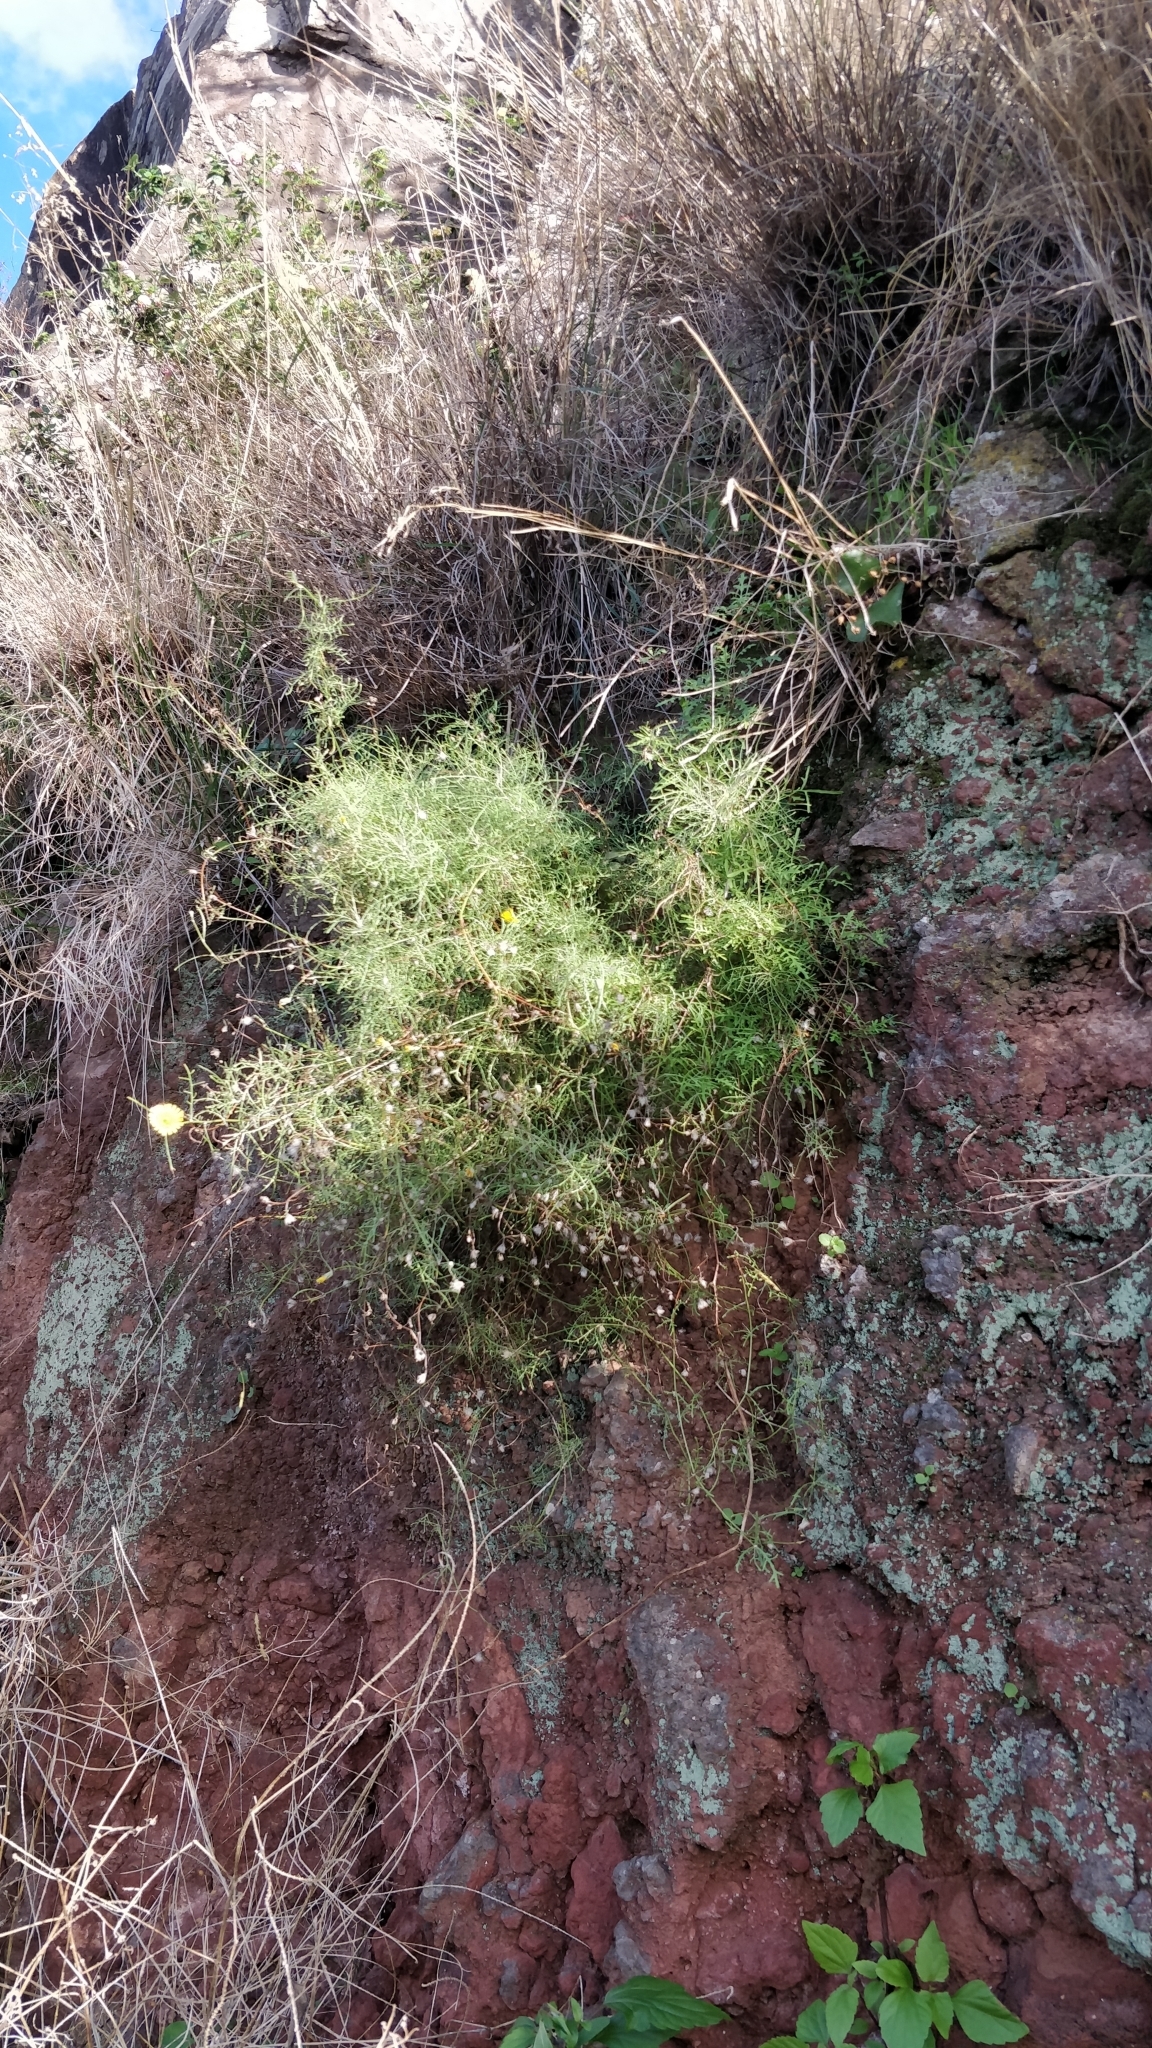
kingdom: Plantae
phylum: Tracheophyta
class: Magnoliopsida
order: Asterales
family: Asteraceae
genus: Tolpis
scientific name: Tolpis succulenta
